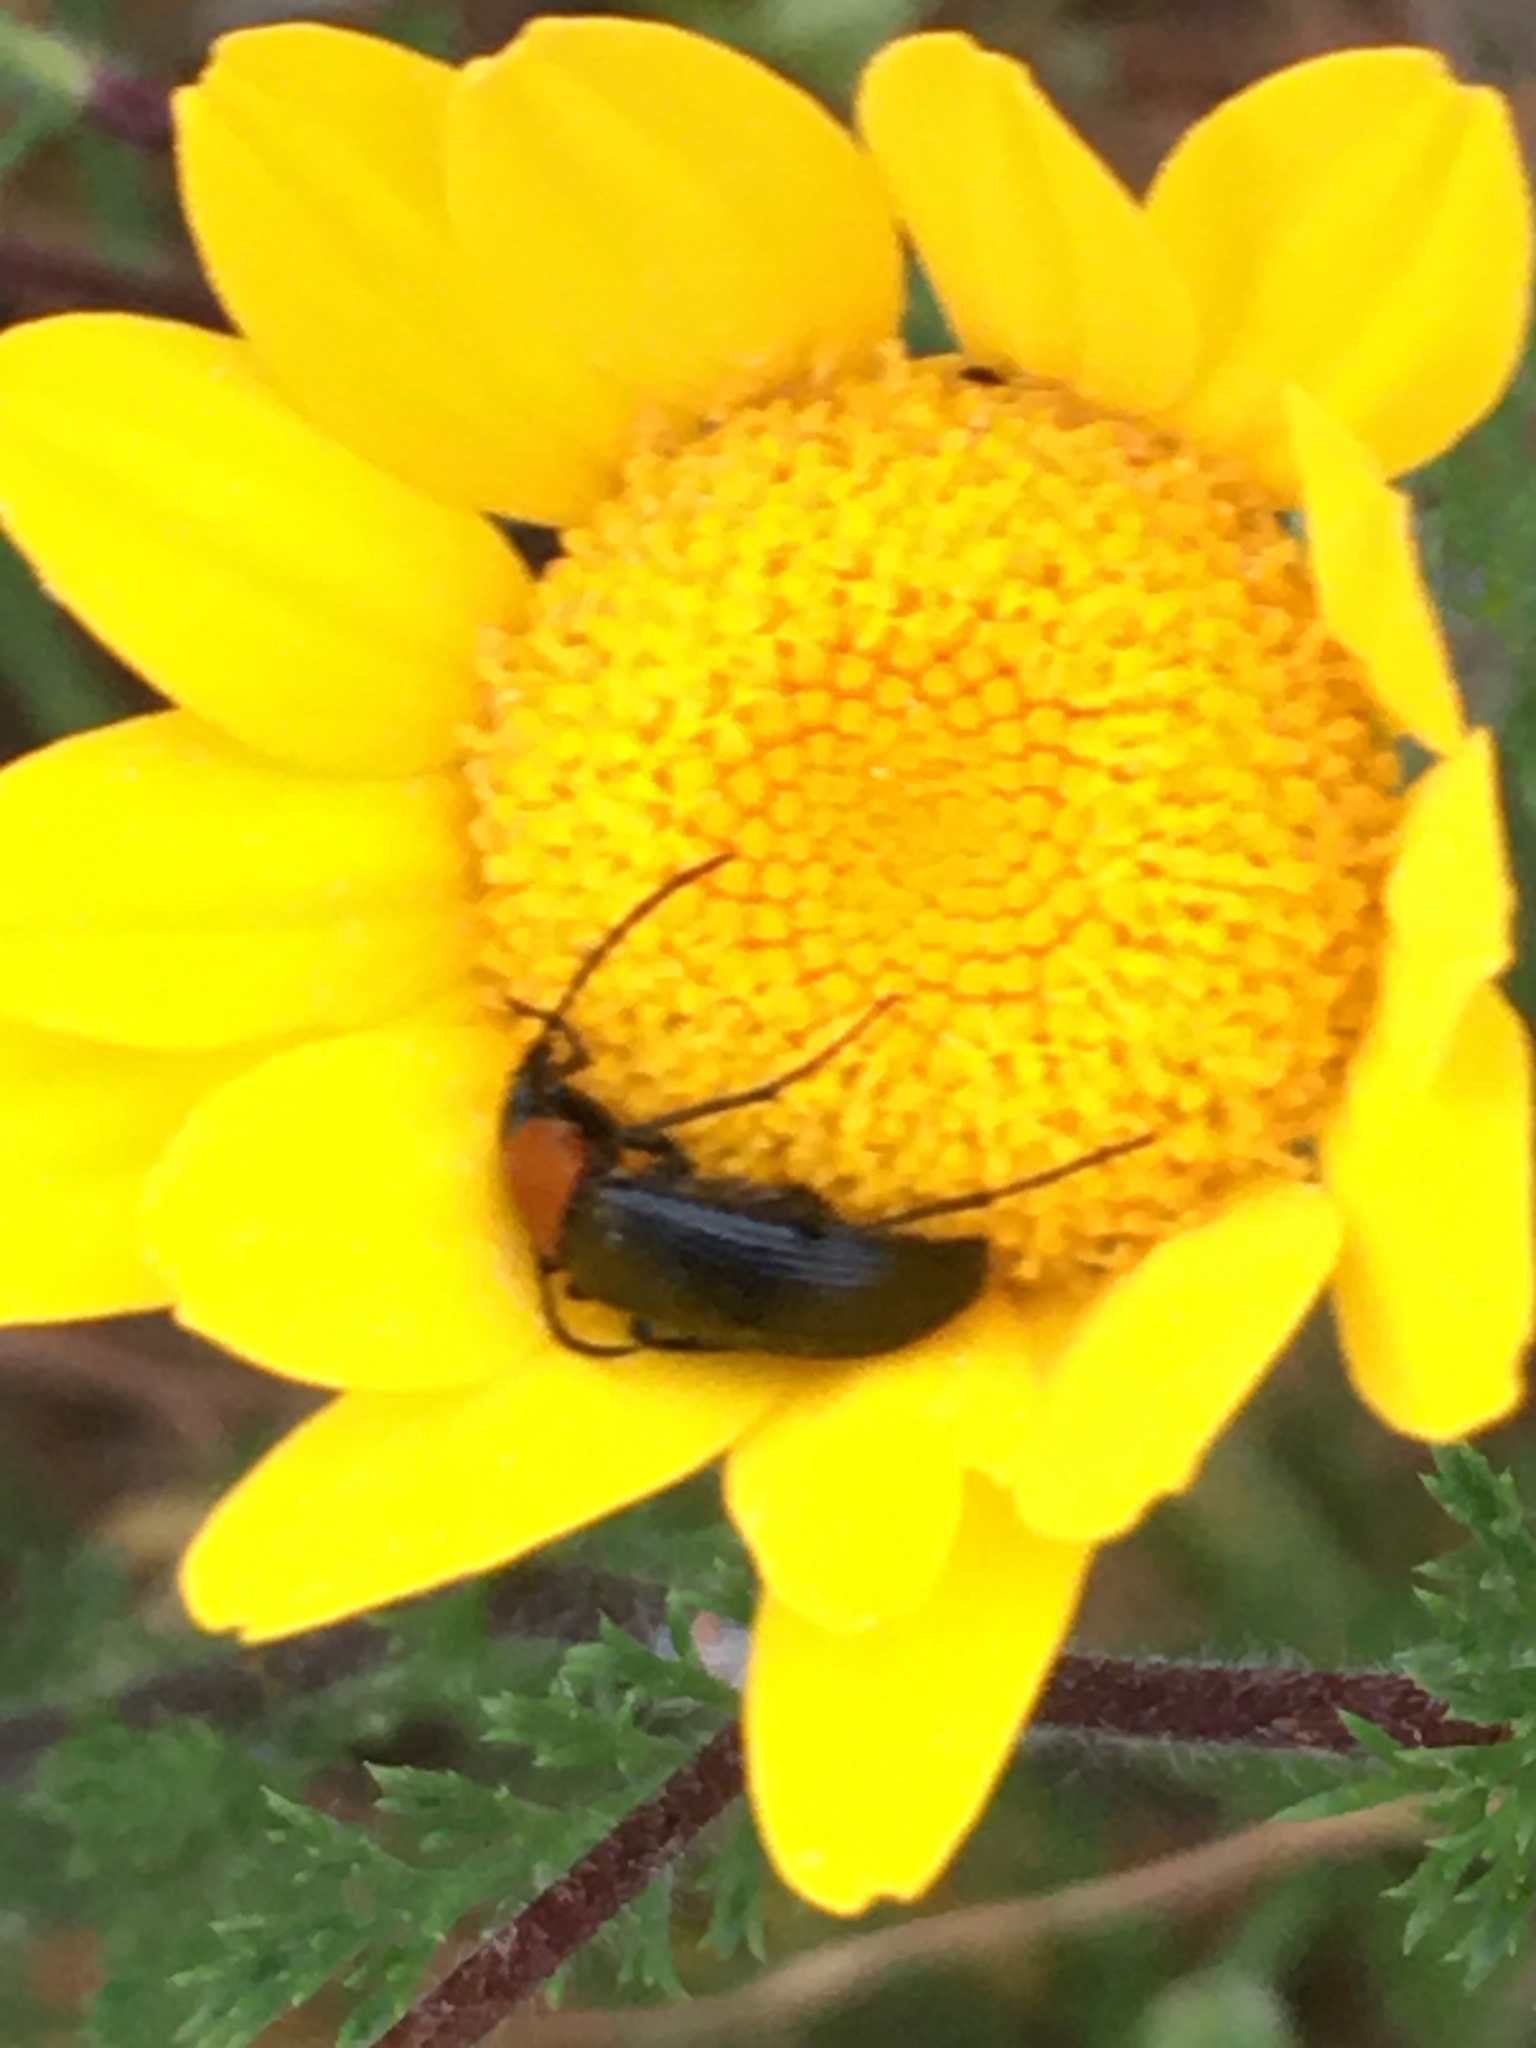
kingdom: Animalia
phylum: Arthropoda
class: Insecta
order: Coleoptera
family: Tenebrionidae
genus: Heliotaurus
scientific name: Heliotaurus ruficollis
